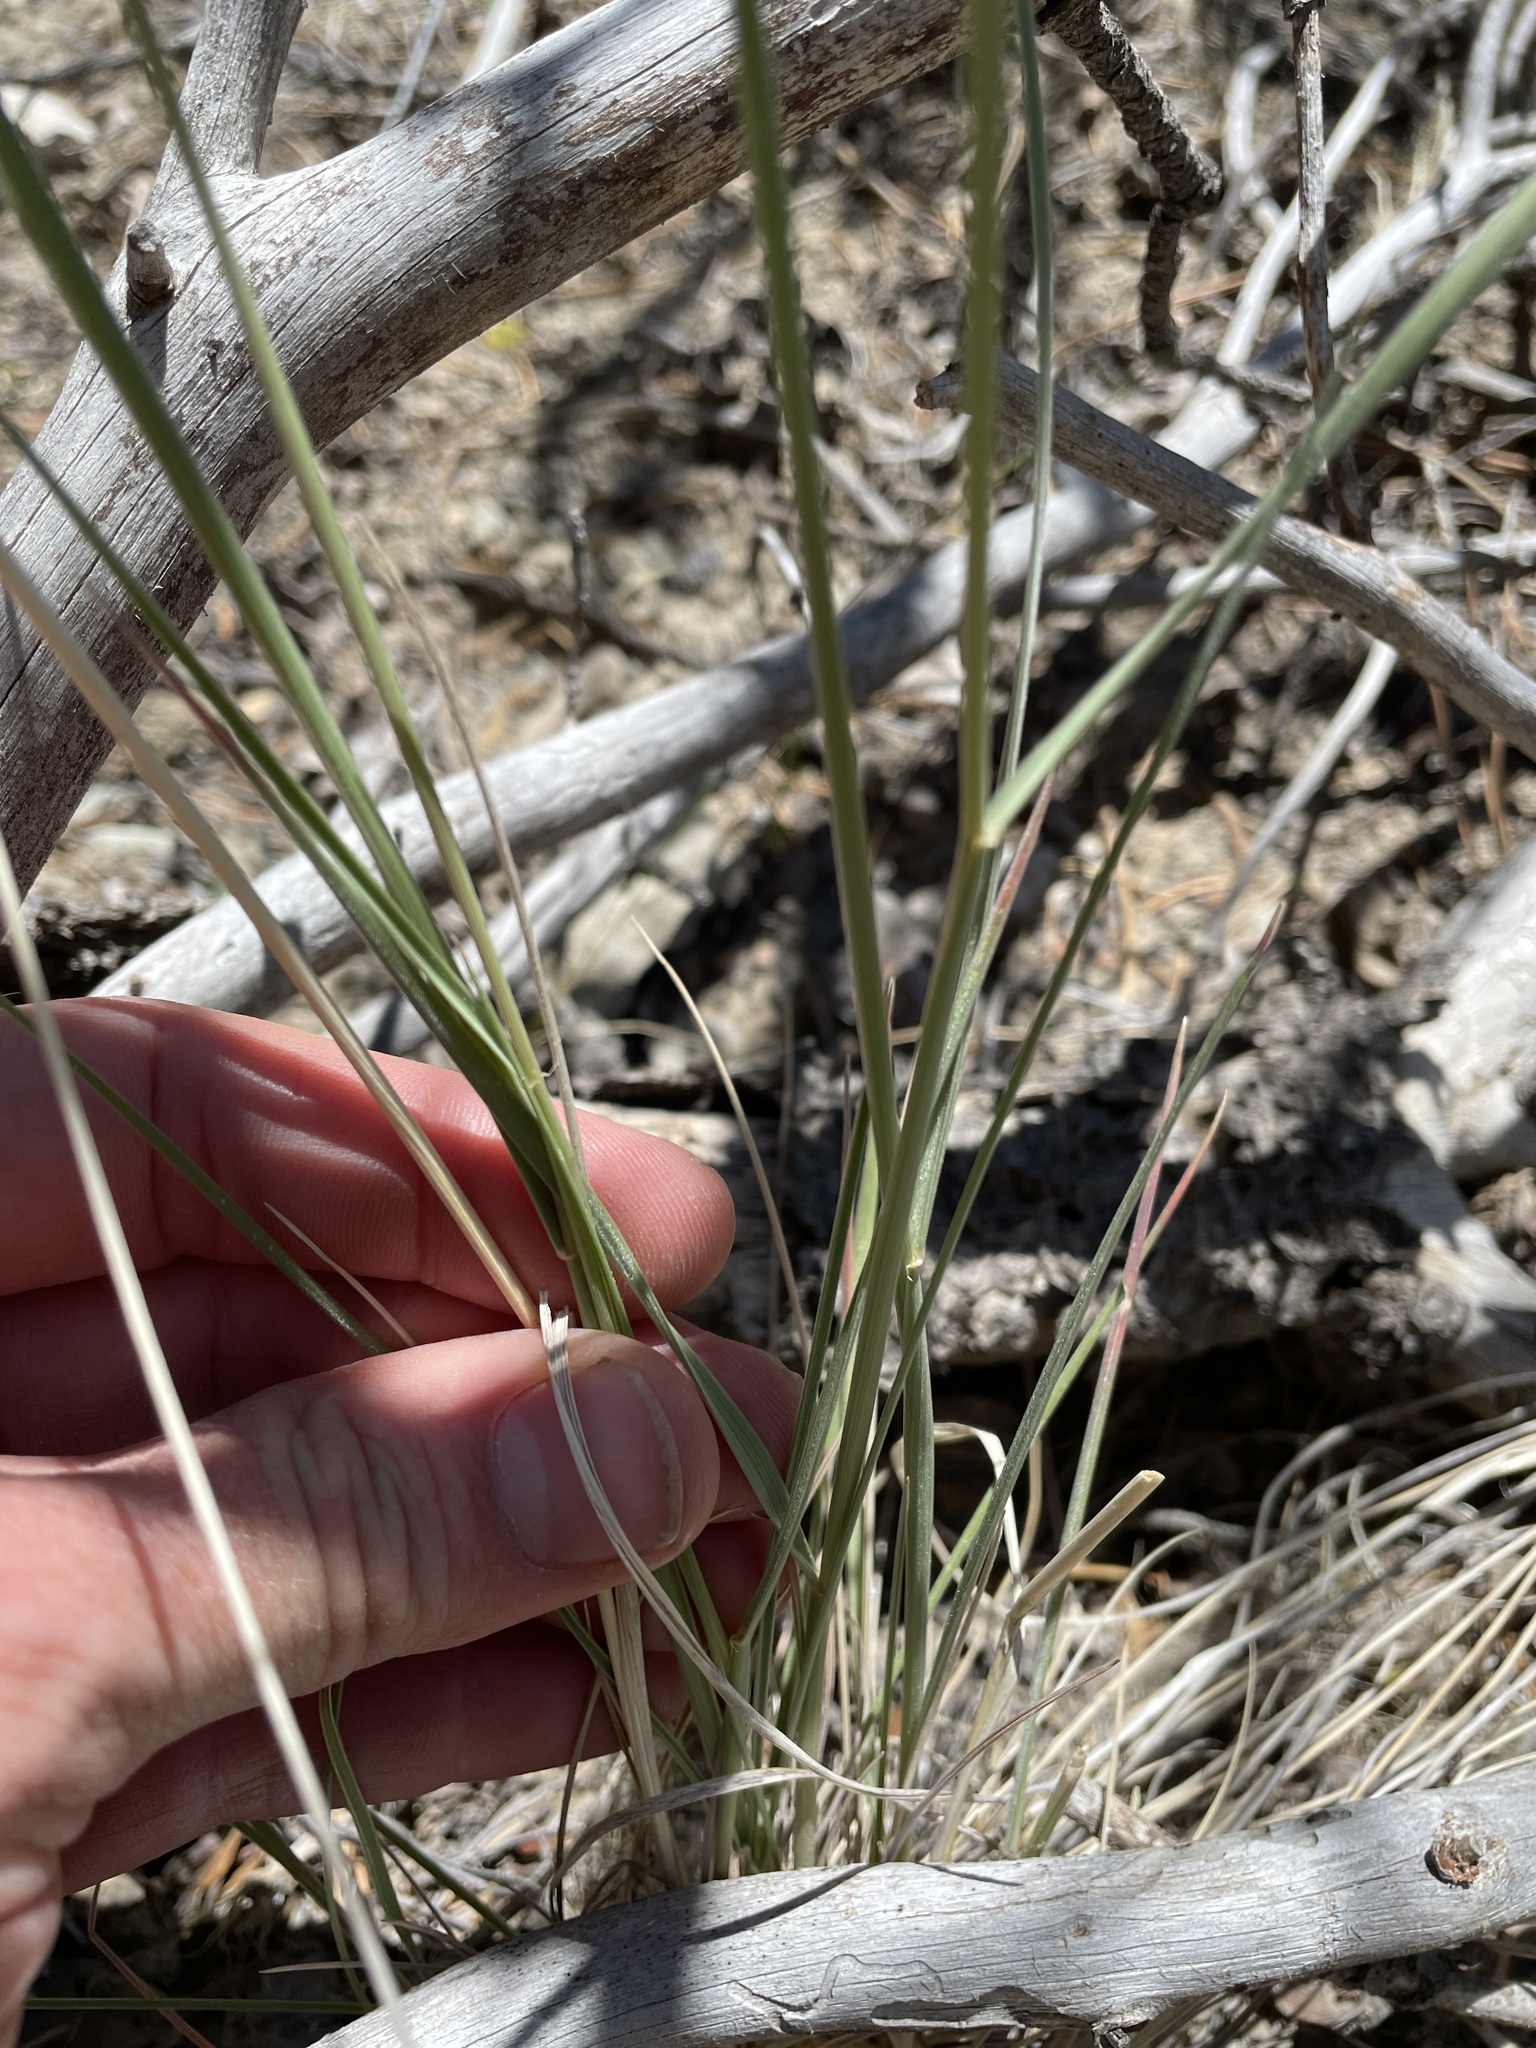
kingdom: Plantae
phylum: Tracheophyta
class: Liliopsida
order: Poales
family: Poaceae
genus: Elymus
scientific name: Elymus longifolius
